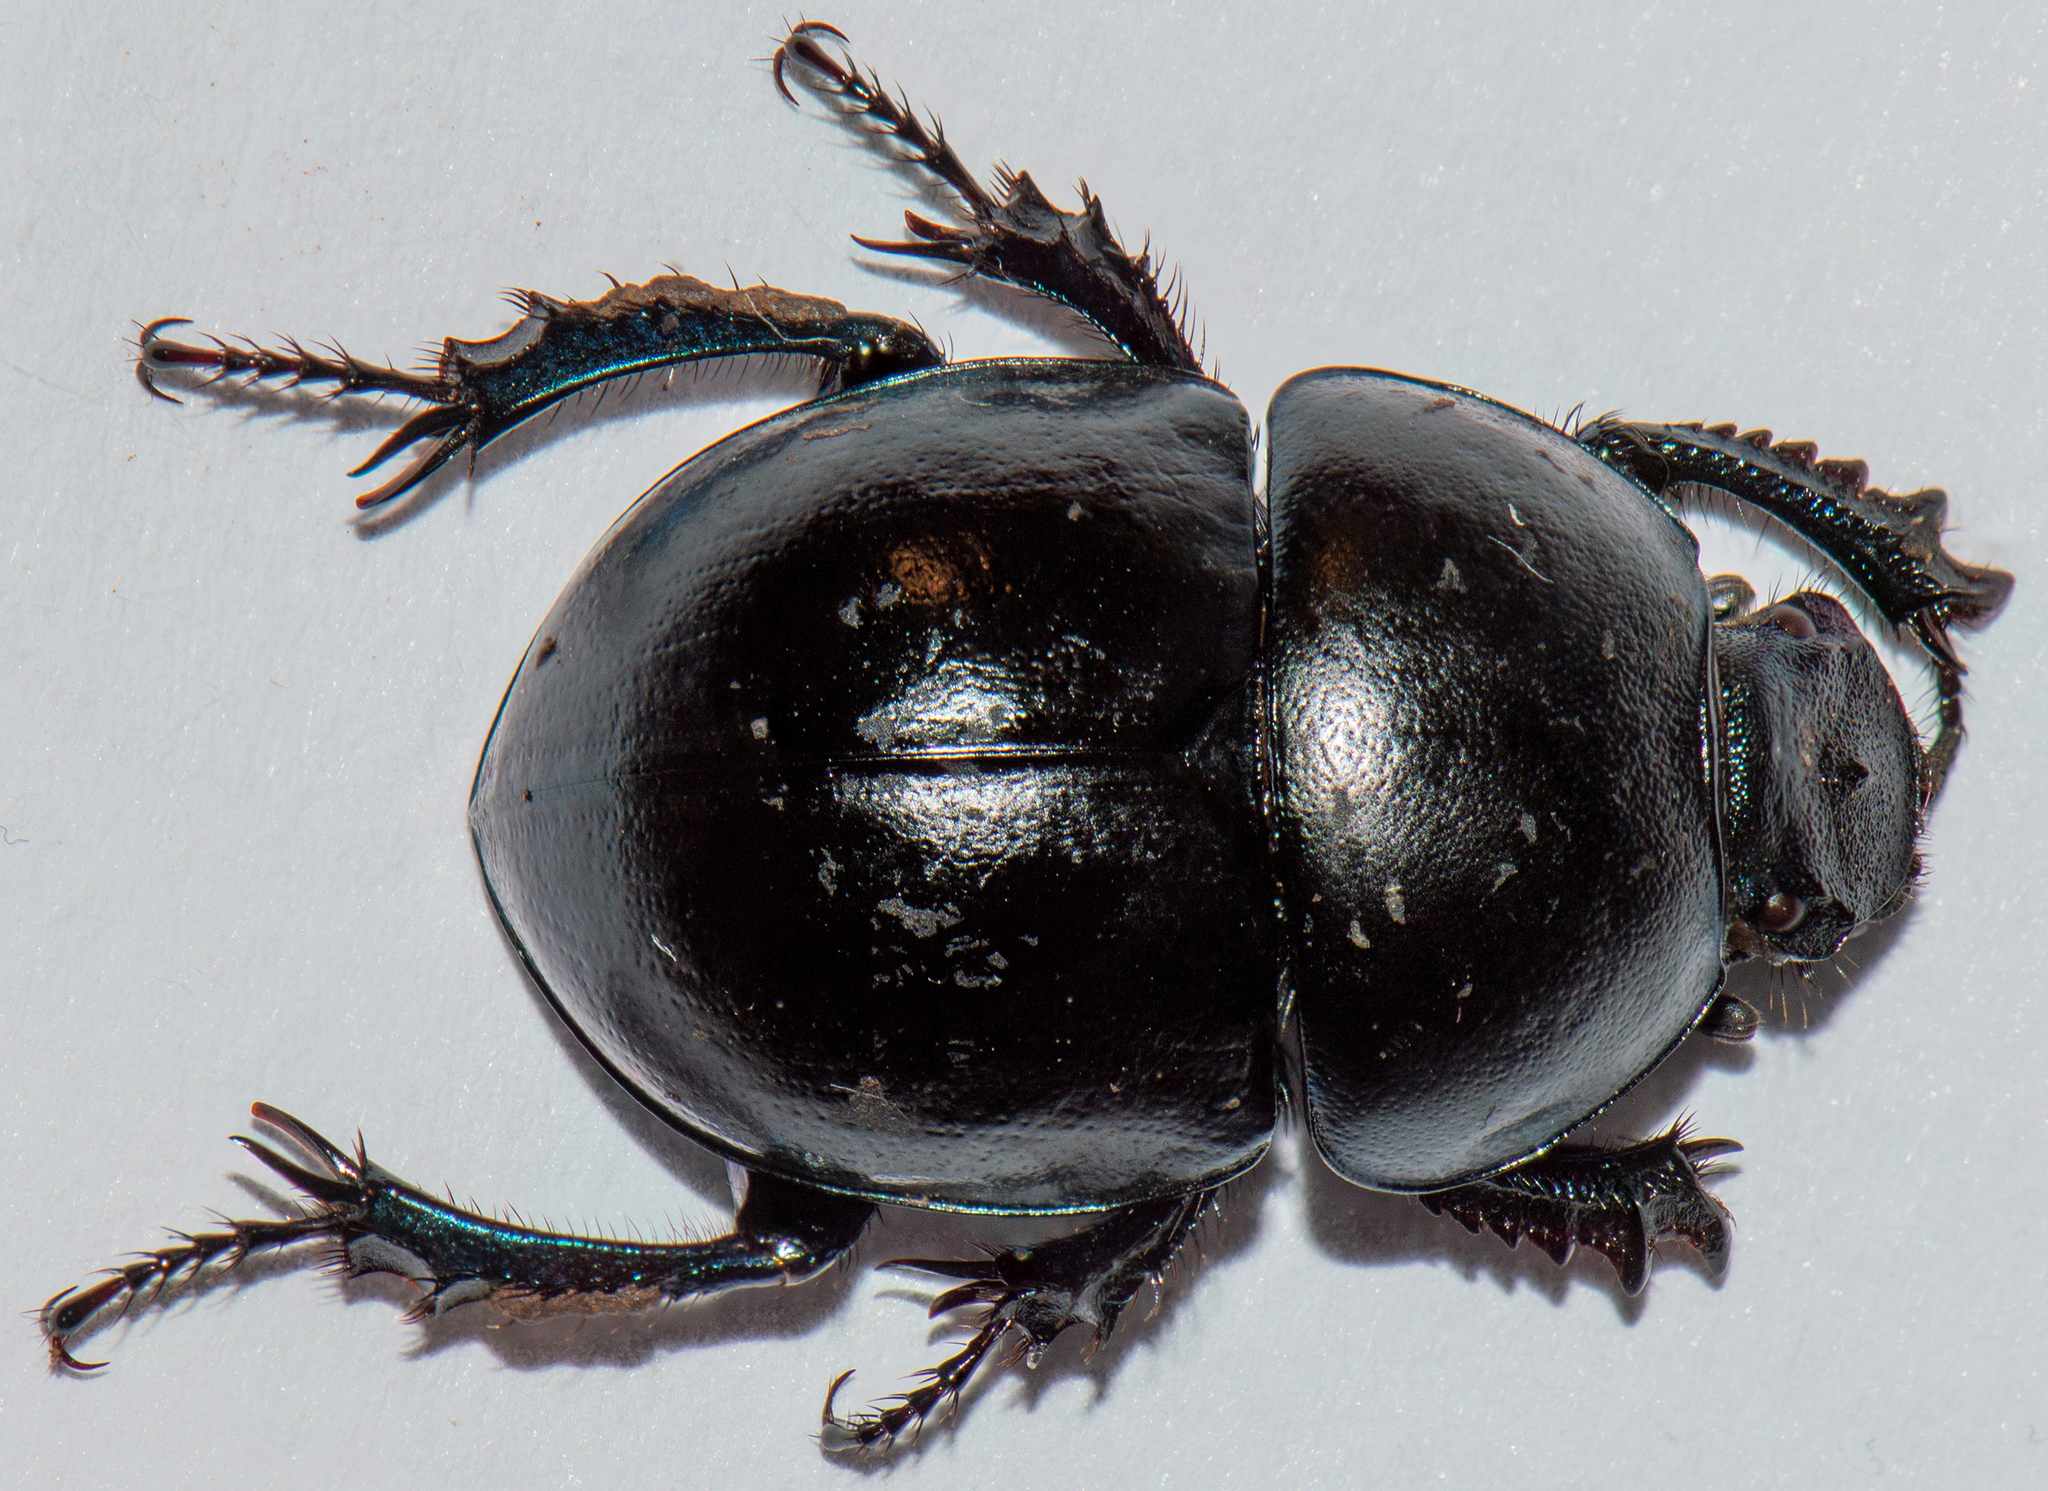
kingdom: Animalia
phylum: Arthropoda
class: Insecta
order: Coleoptera
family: Geotrupidae
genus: Thorectes
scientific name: Thorectes
